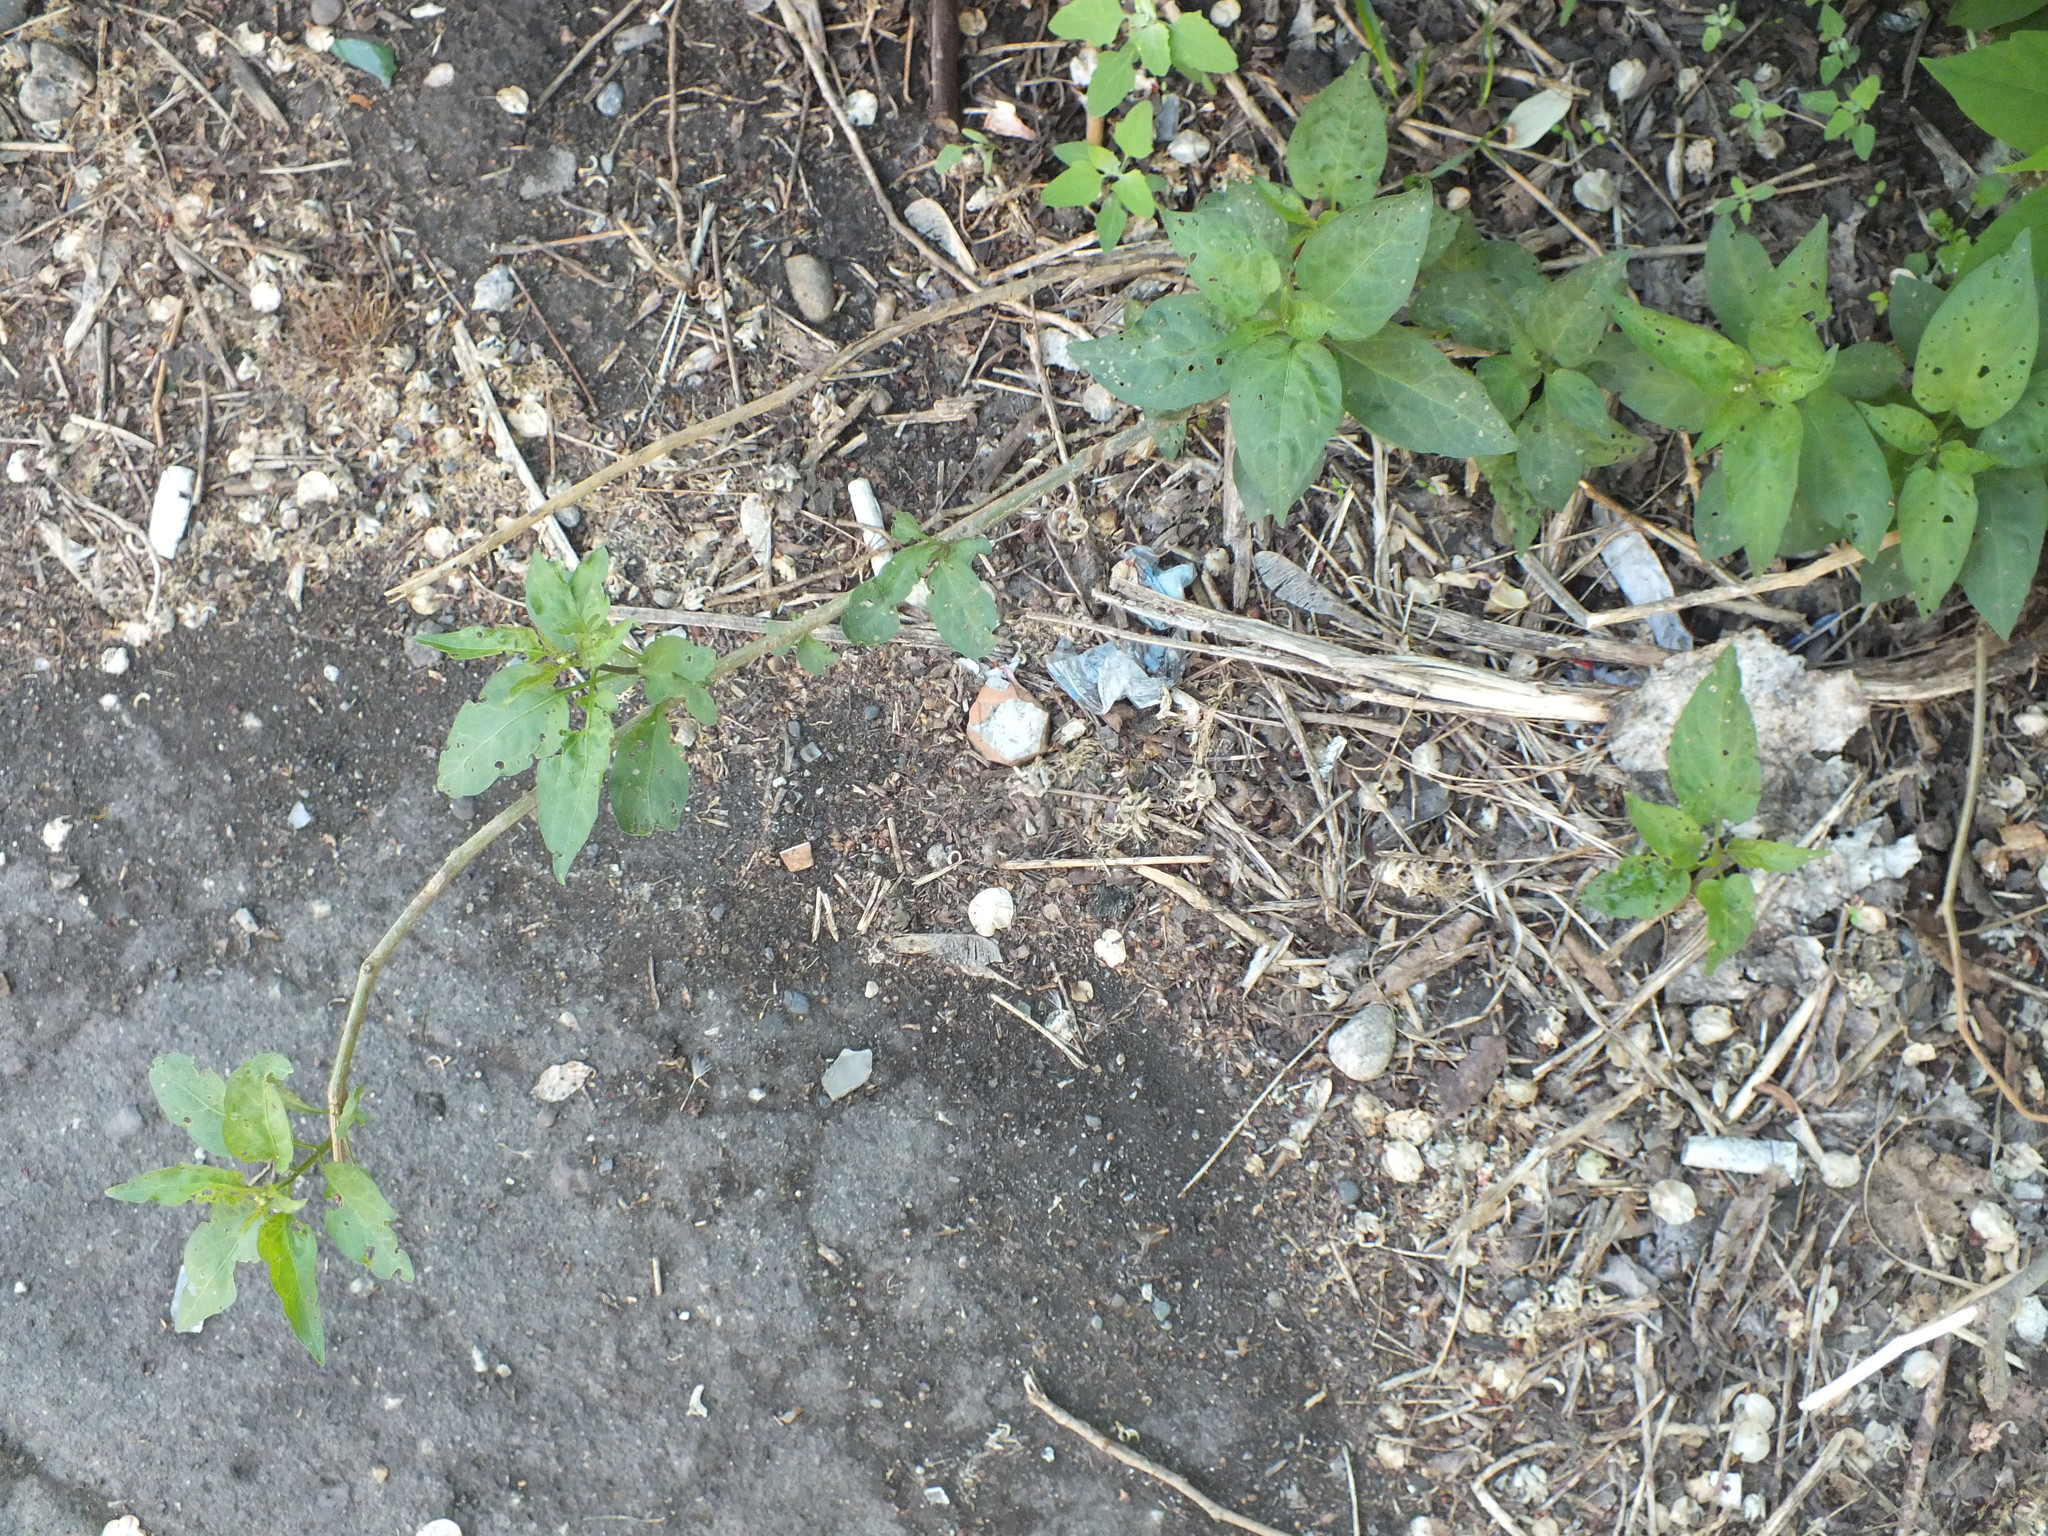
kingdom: Plantae
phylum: Tracheophyta
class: Magnoliopsida
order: Solanales
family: Solanaceae
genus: Solanum
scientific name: Solanum dulcamara
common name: Climbing nightshade
